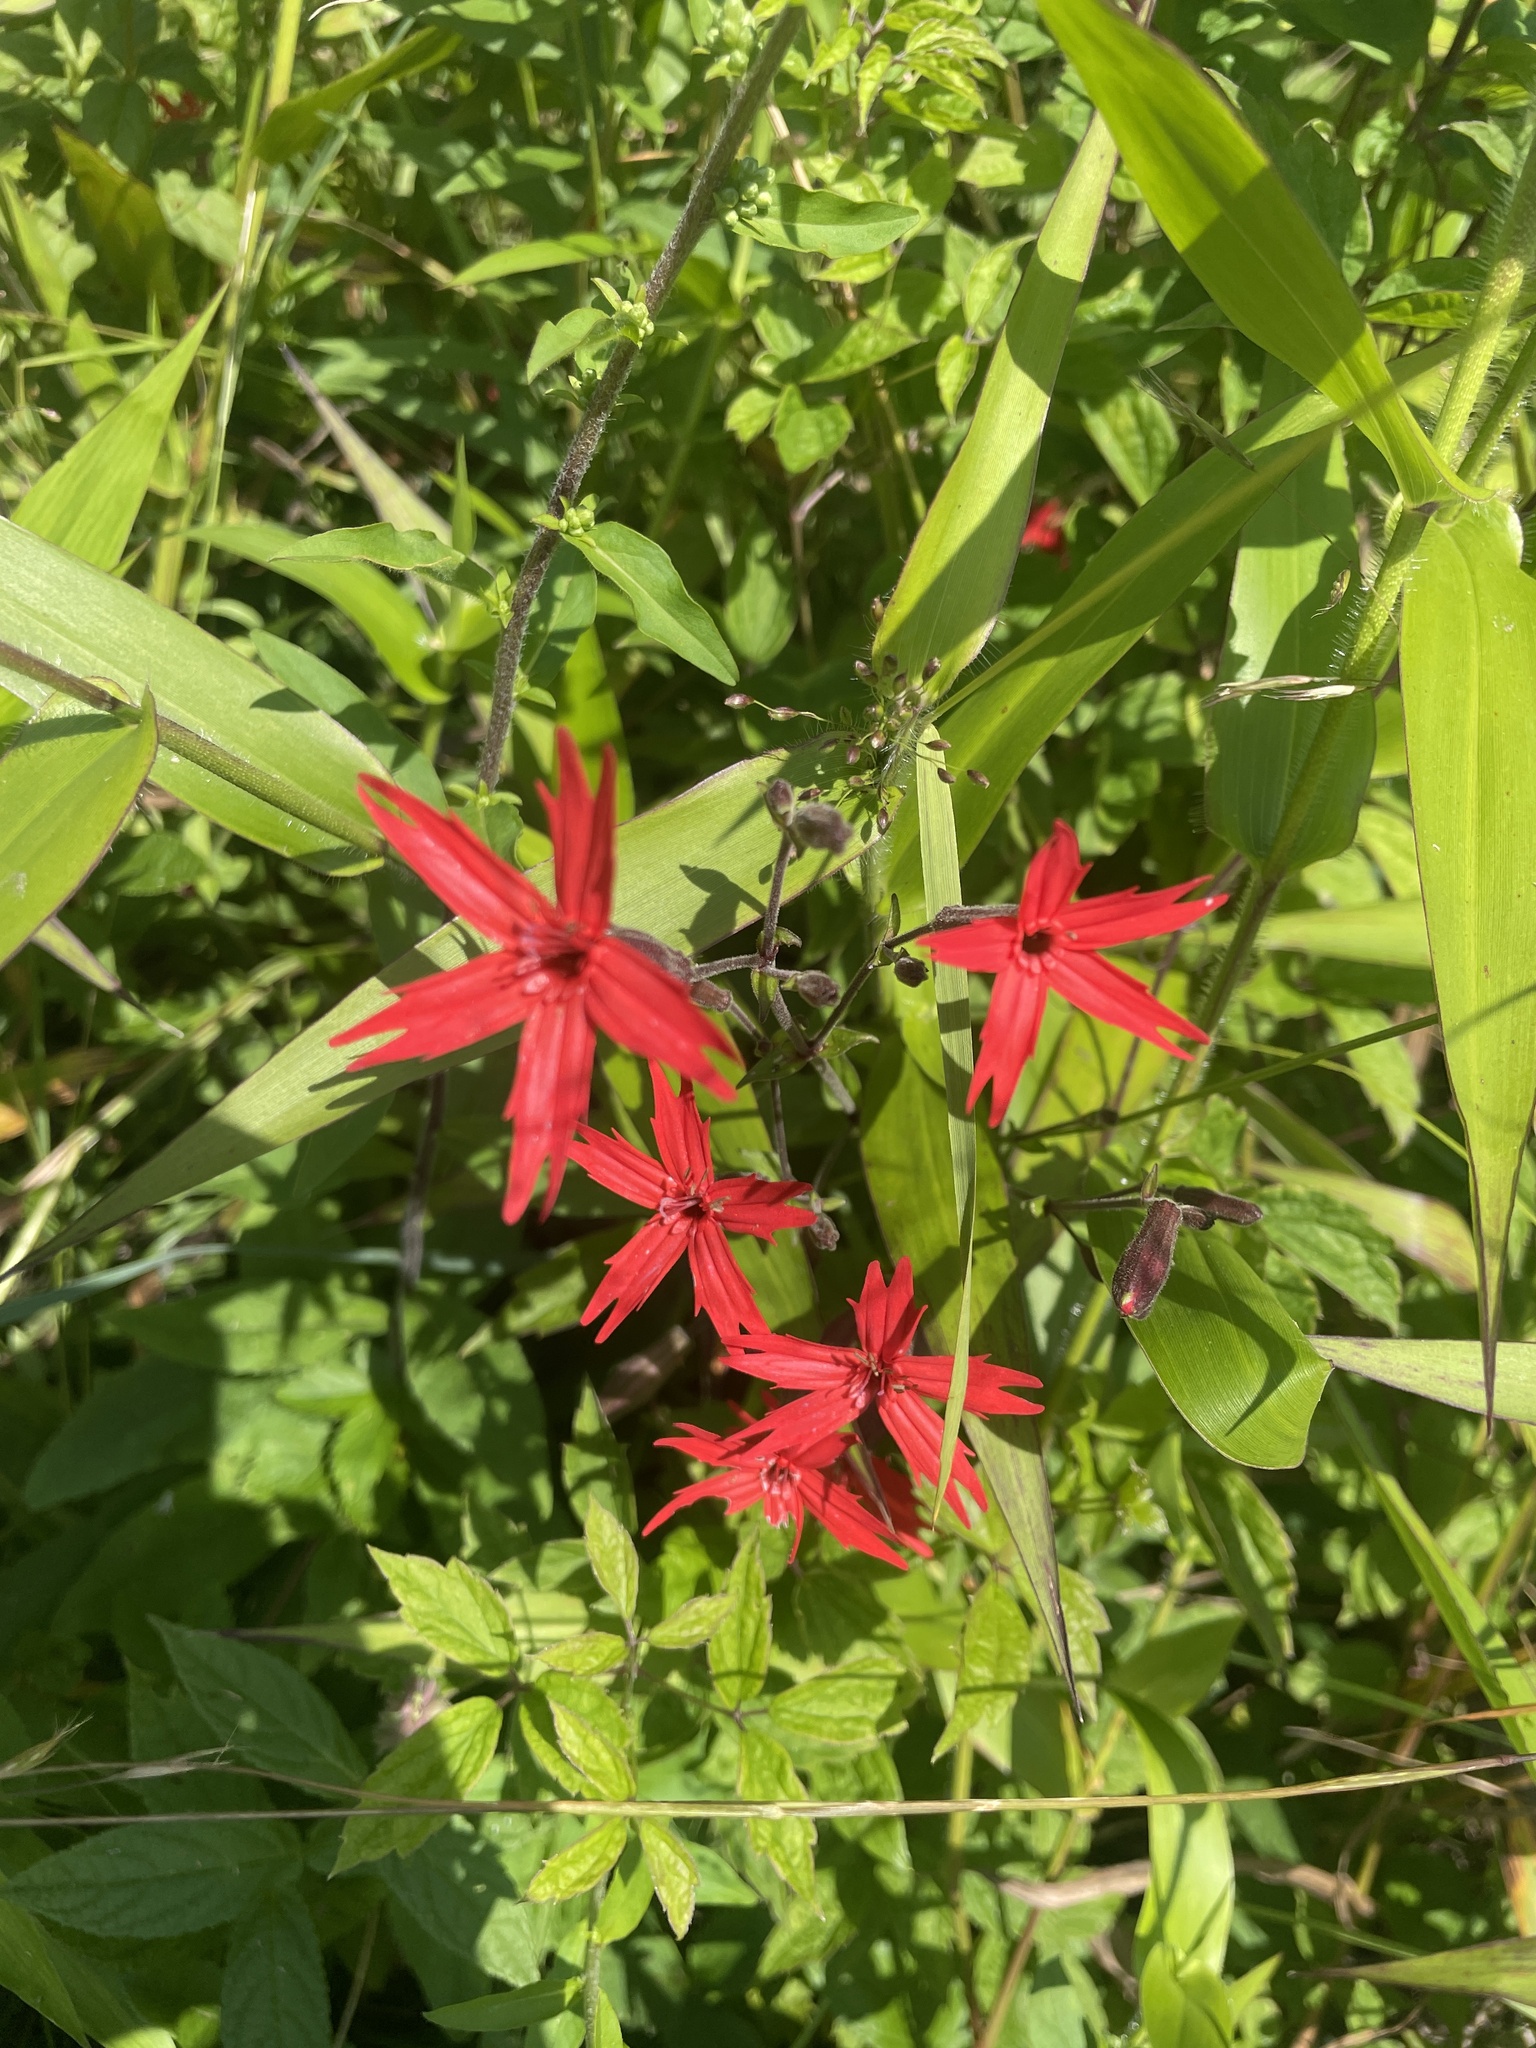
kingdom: Plantae
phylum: Tracheophyta
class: Magnoliopsida
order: Caryophyllales
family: Caryophyllaceae
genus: Silene
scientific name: Silene virginica
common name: Fire-pink
